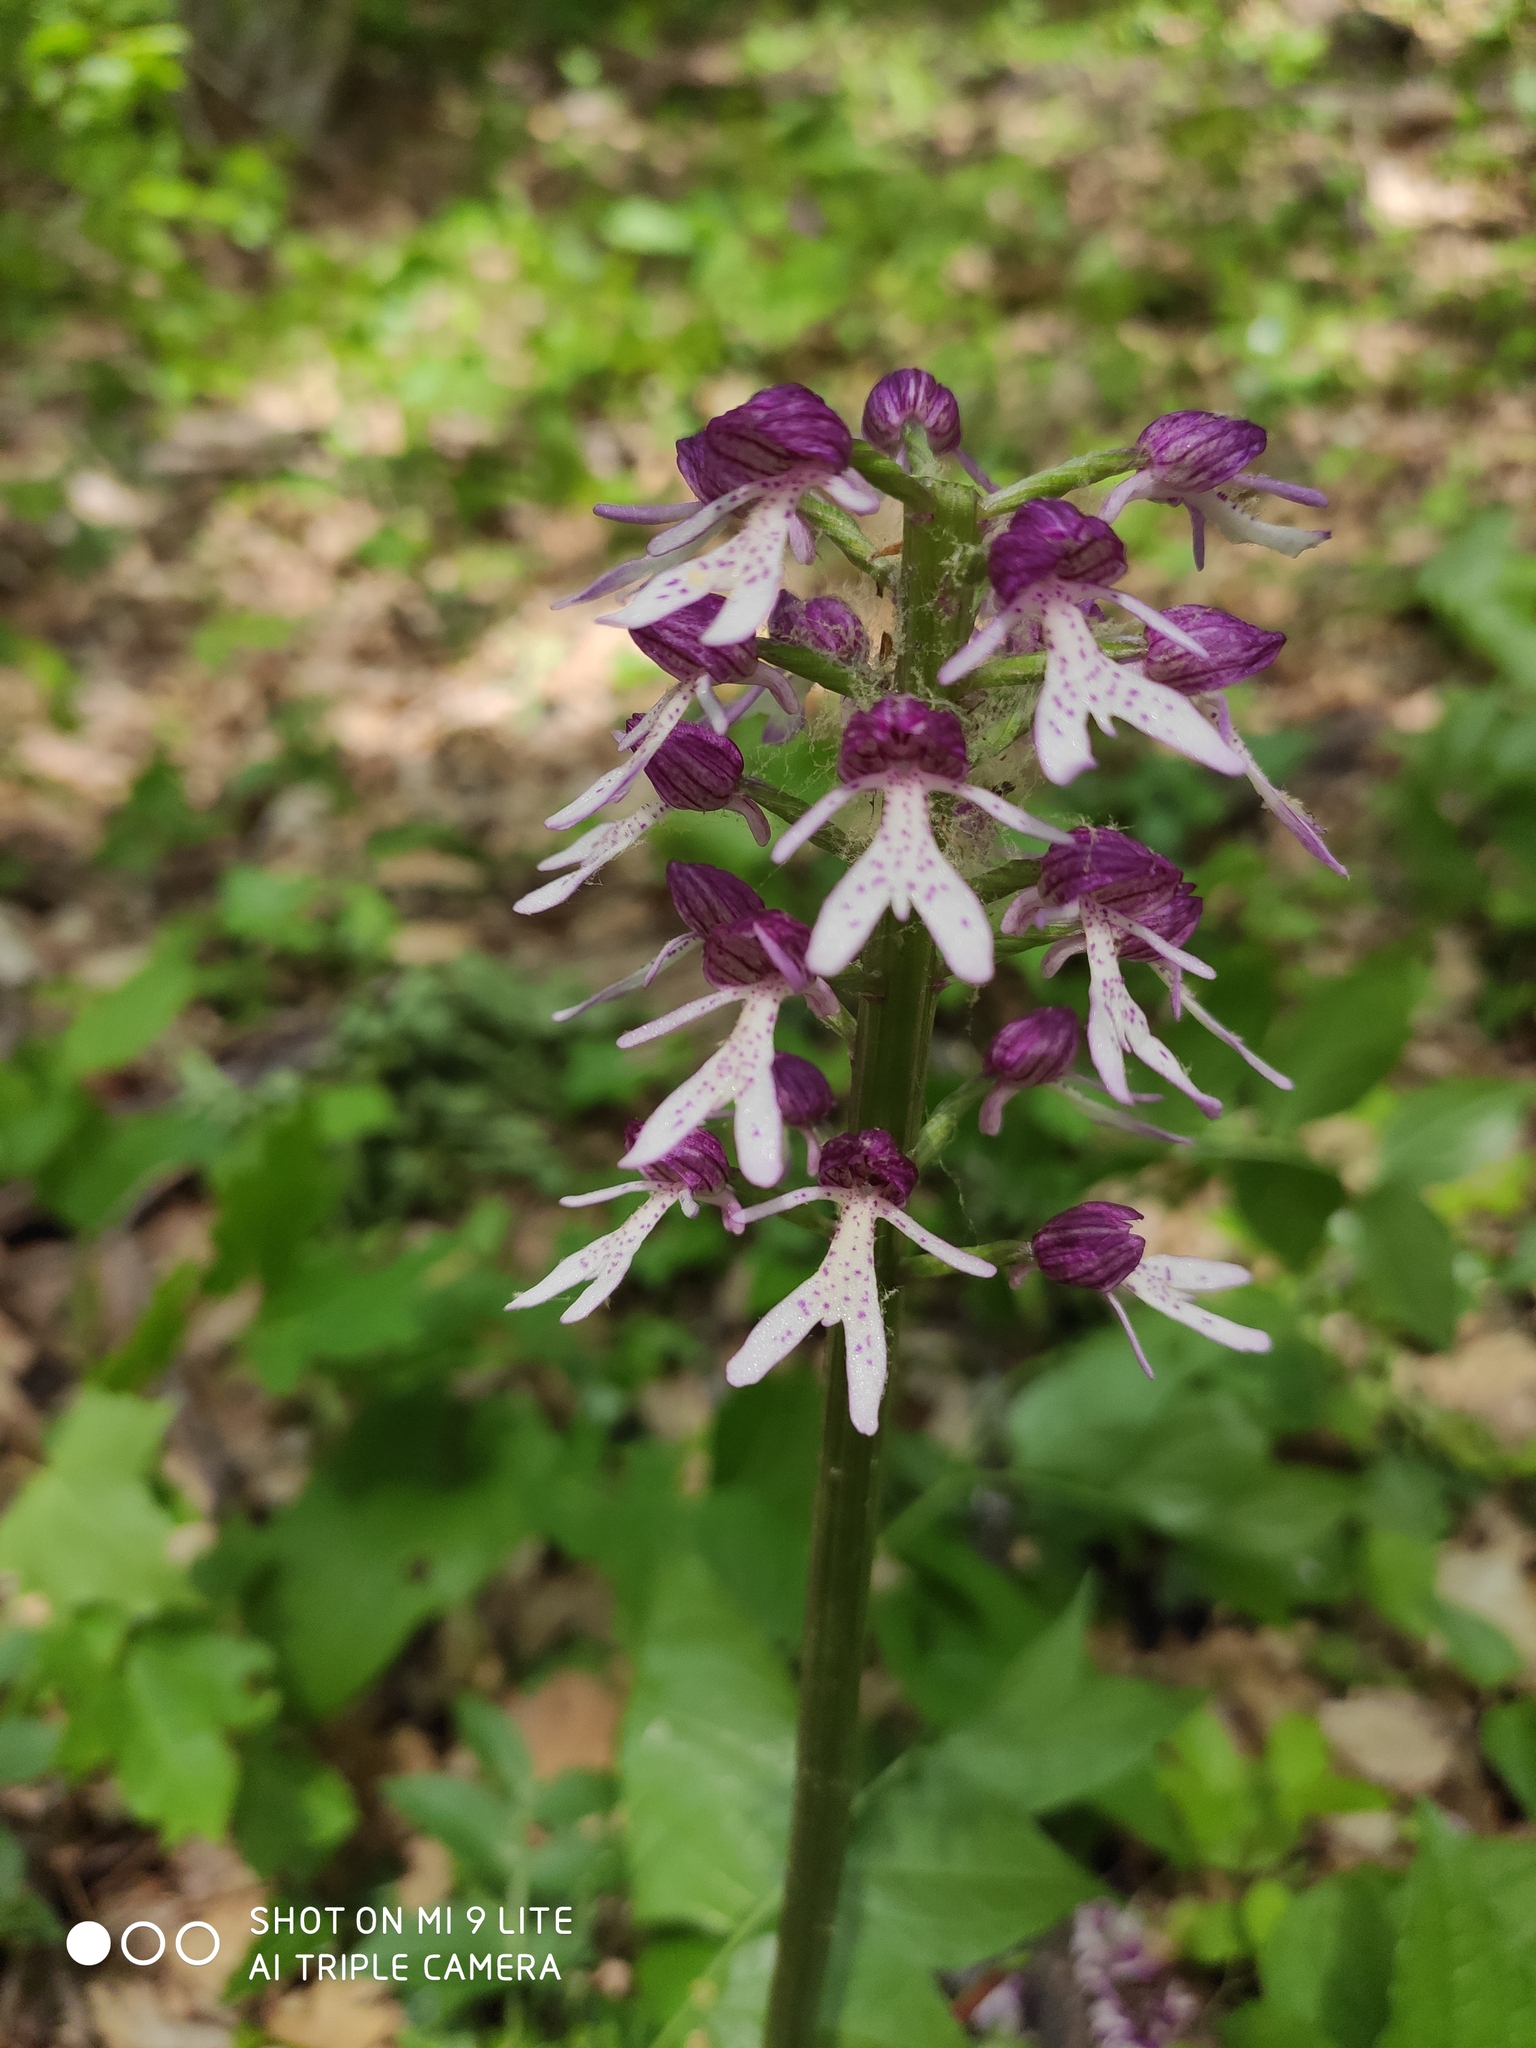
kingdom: Plantae
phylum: Tracheophyta
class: Liliopsida
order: Asparagales
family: Orchidaceae
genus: Orchis
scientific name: Orchis purpurea
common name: Lady orchid
